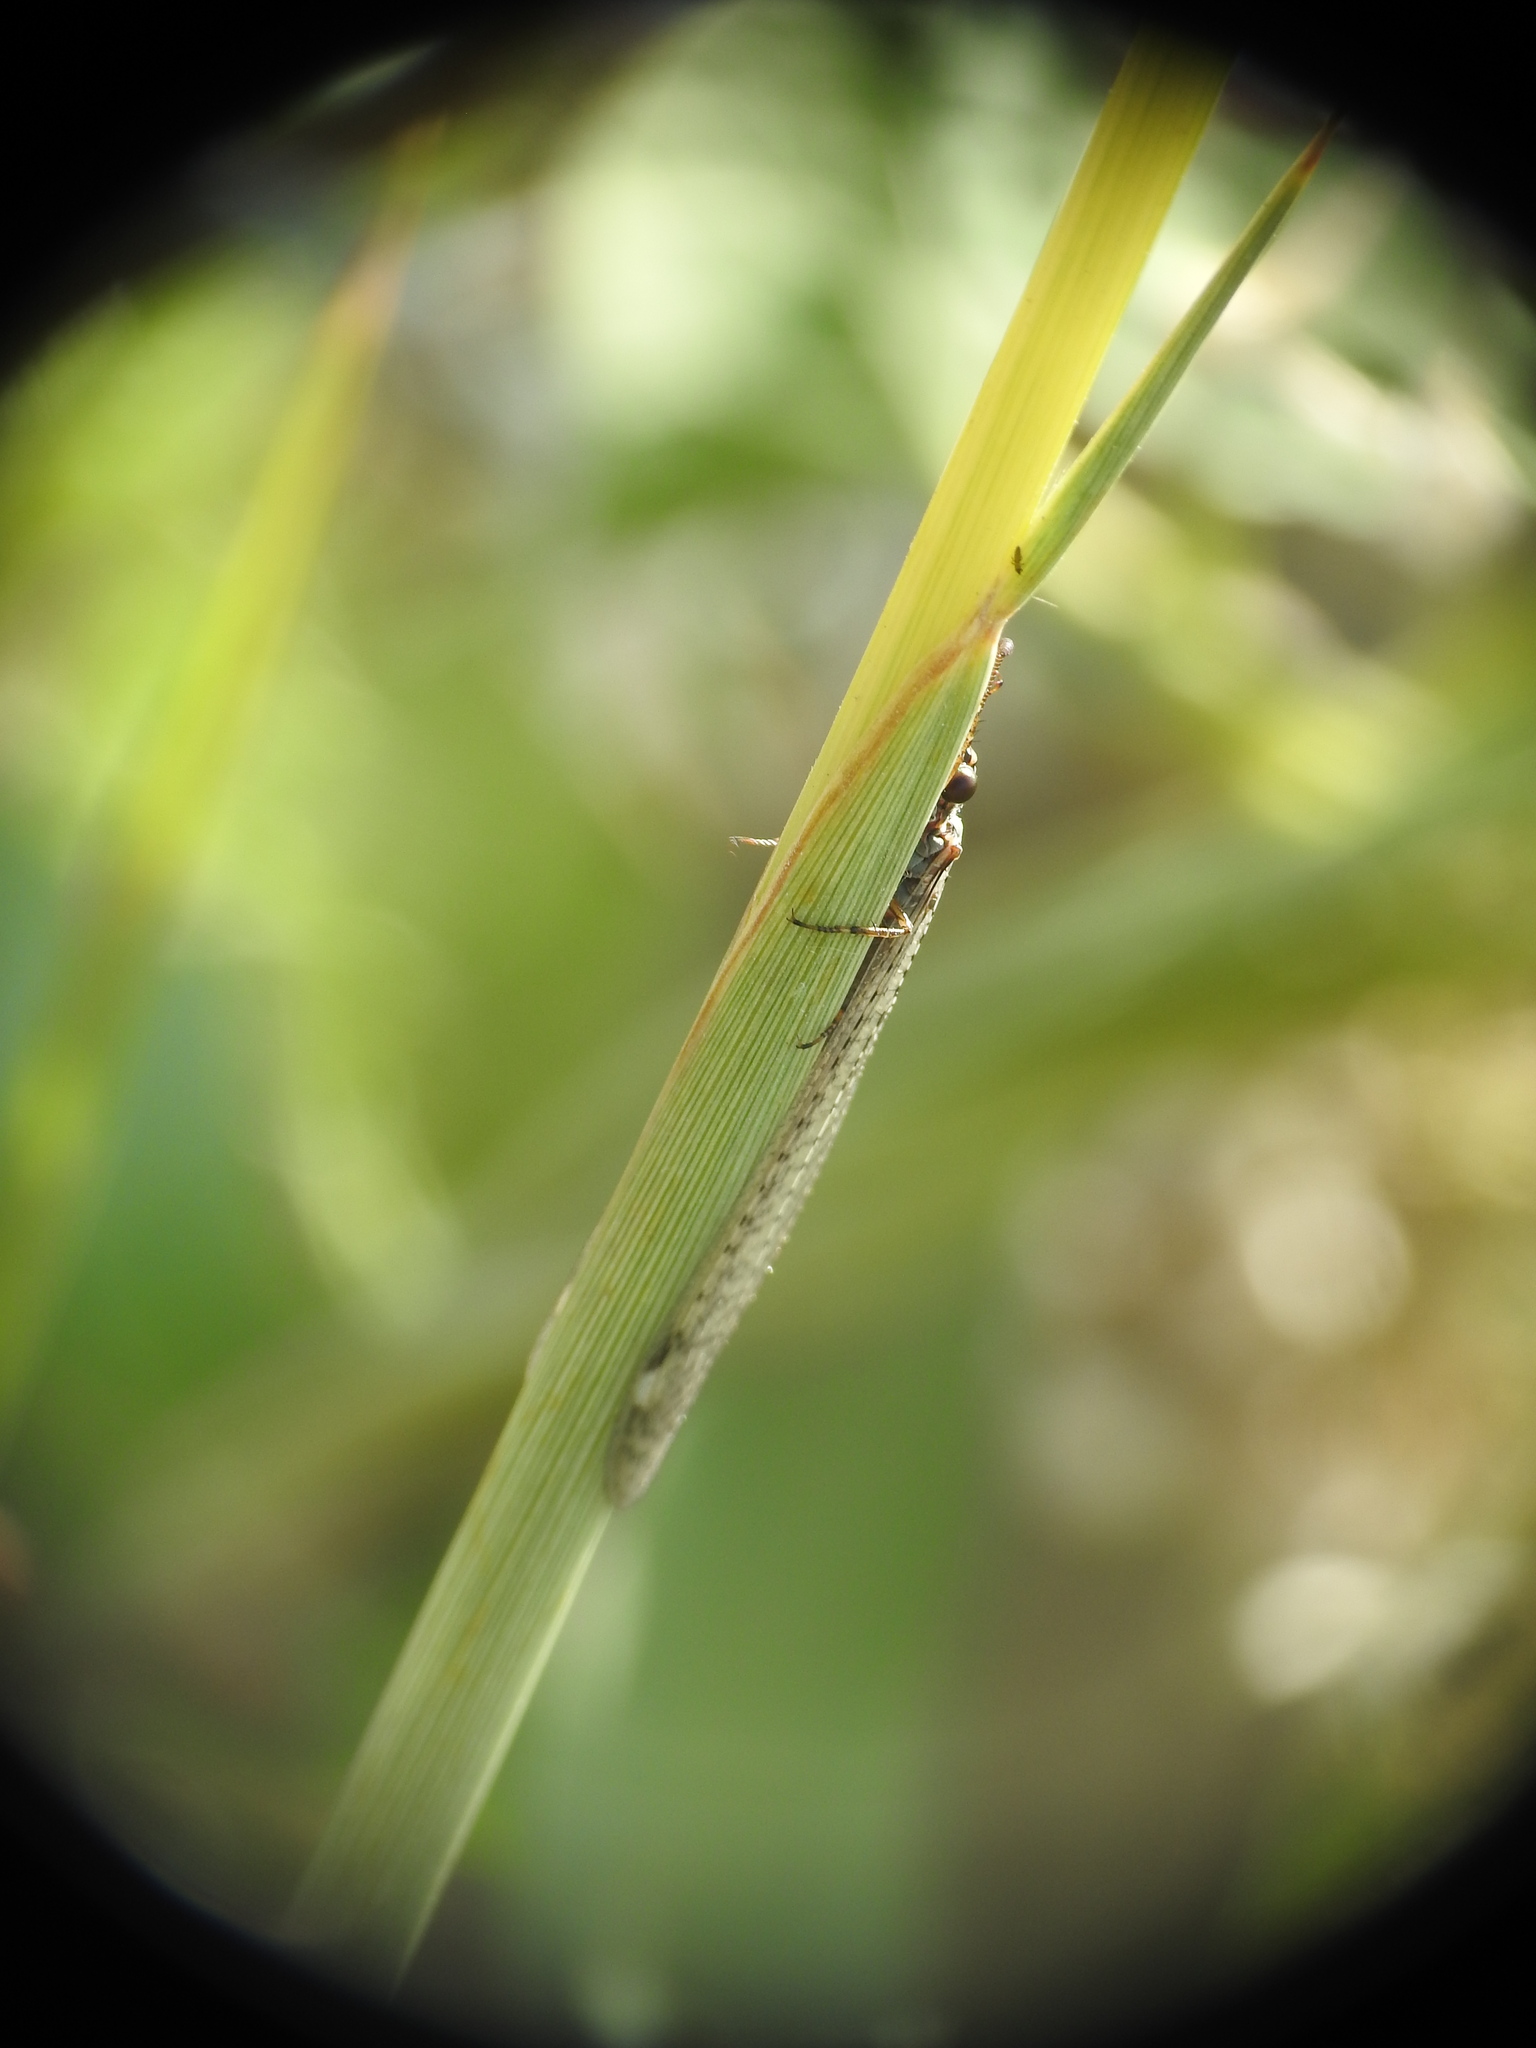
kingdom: Animalia
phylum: Arthropoda
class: Insecta
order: Neuroptera
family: Myrmeleontidae
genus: Myrmeleon
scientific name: Myrmeleon inconspicuus
